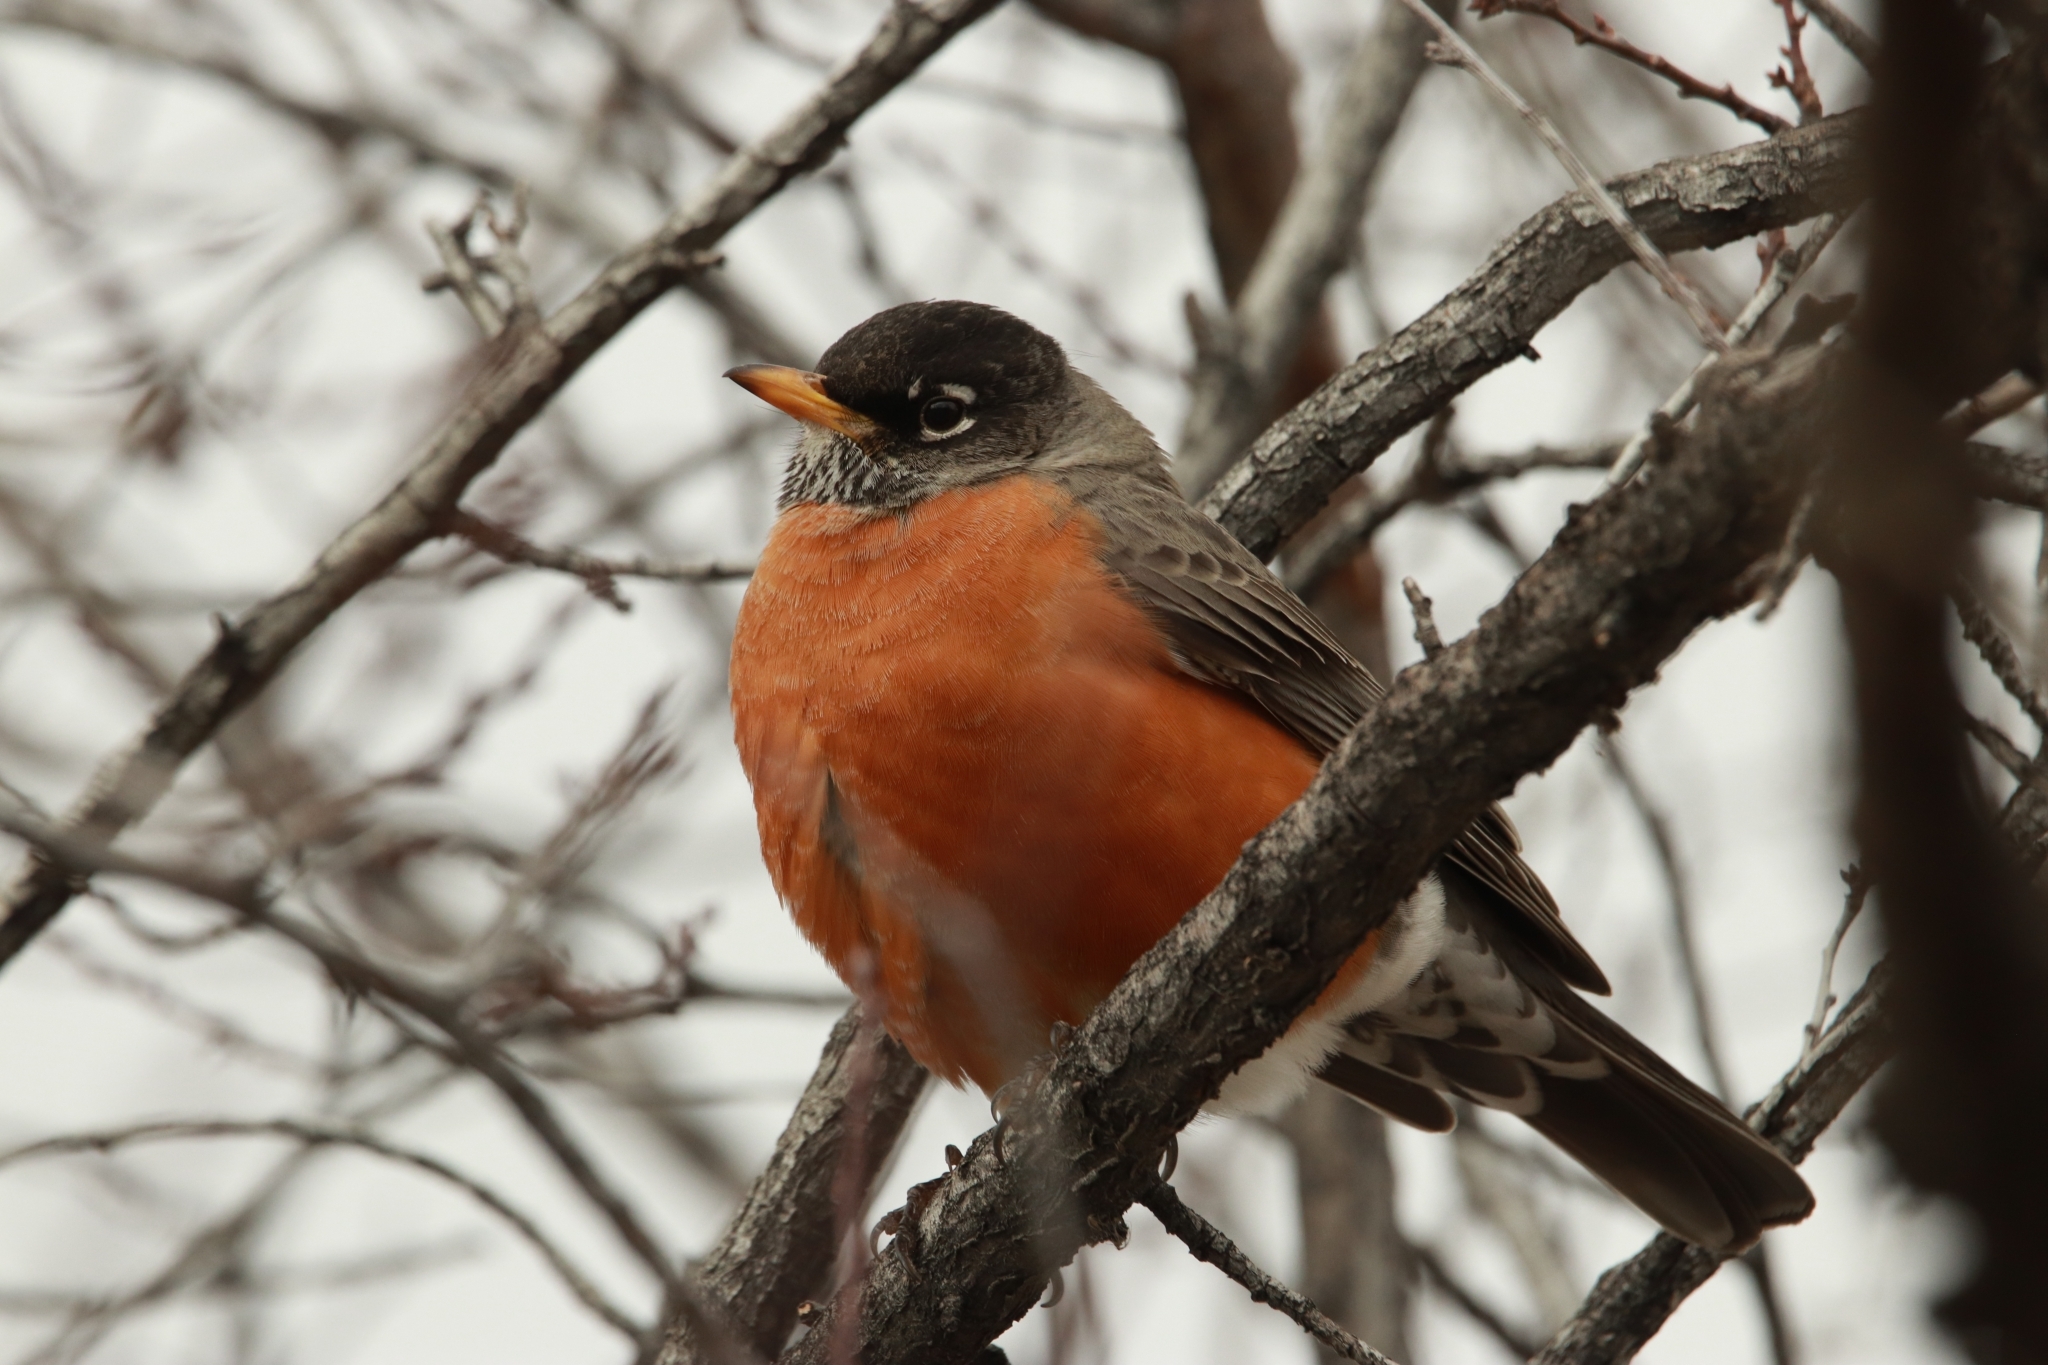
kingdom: Animalia
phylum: Chordata
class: Aves
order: Passeriformes
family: Turdidae
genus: Turdus
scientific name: Turdus migratorius
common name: American robin
